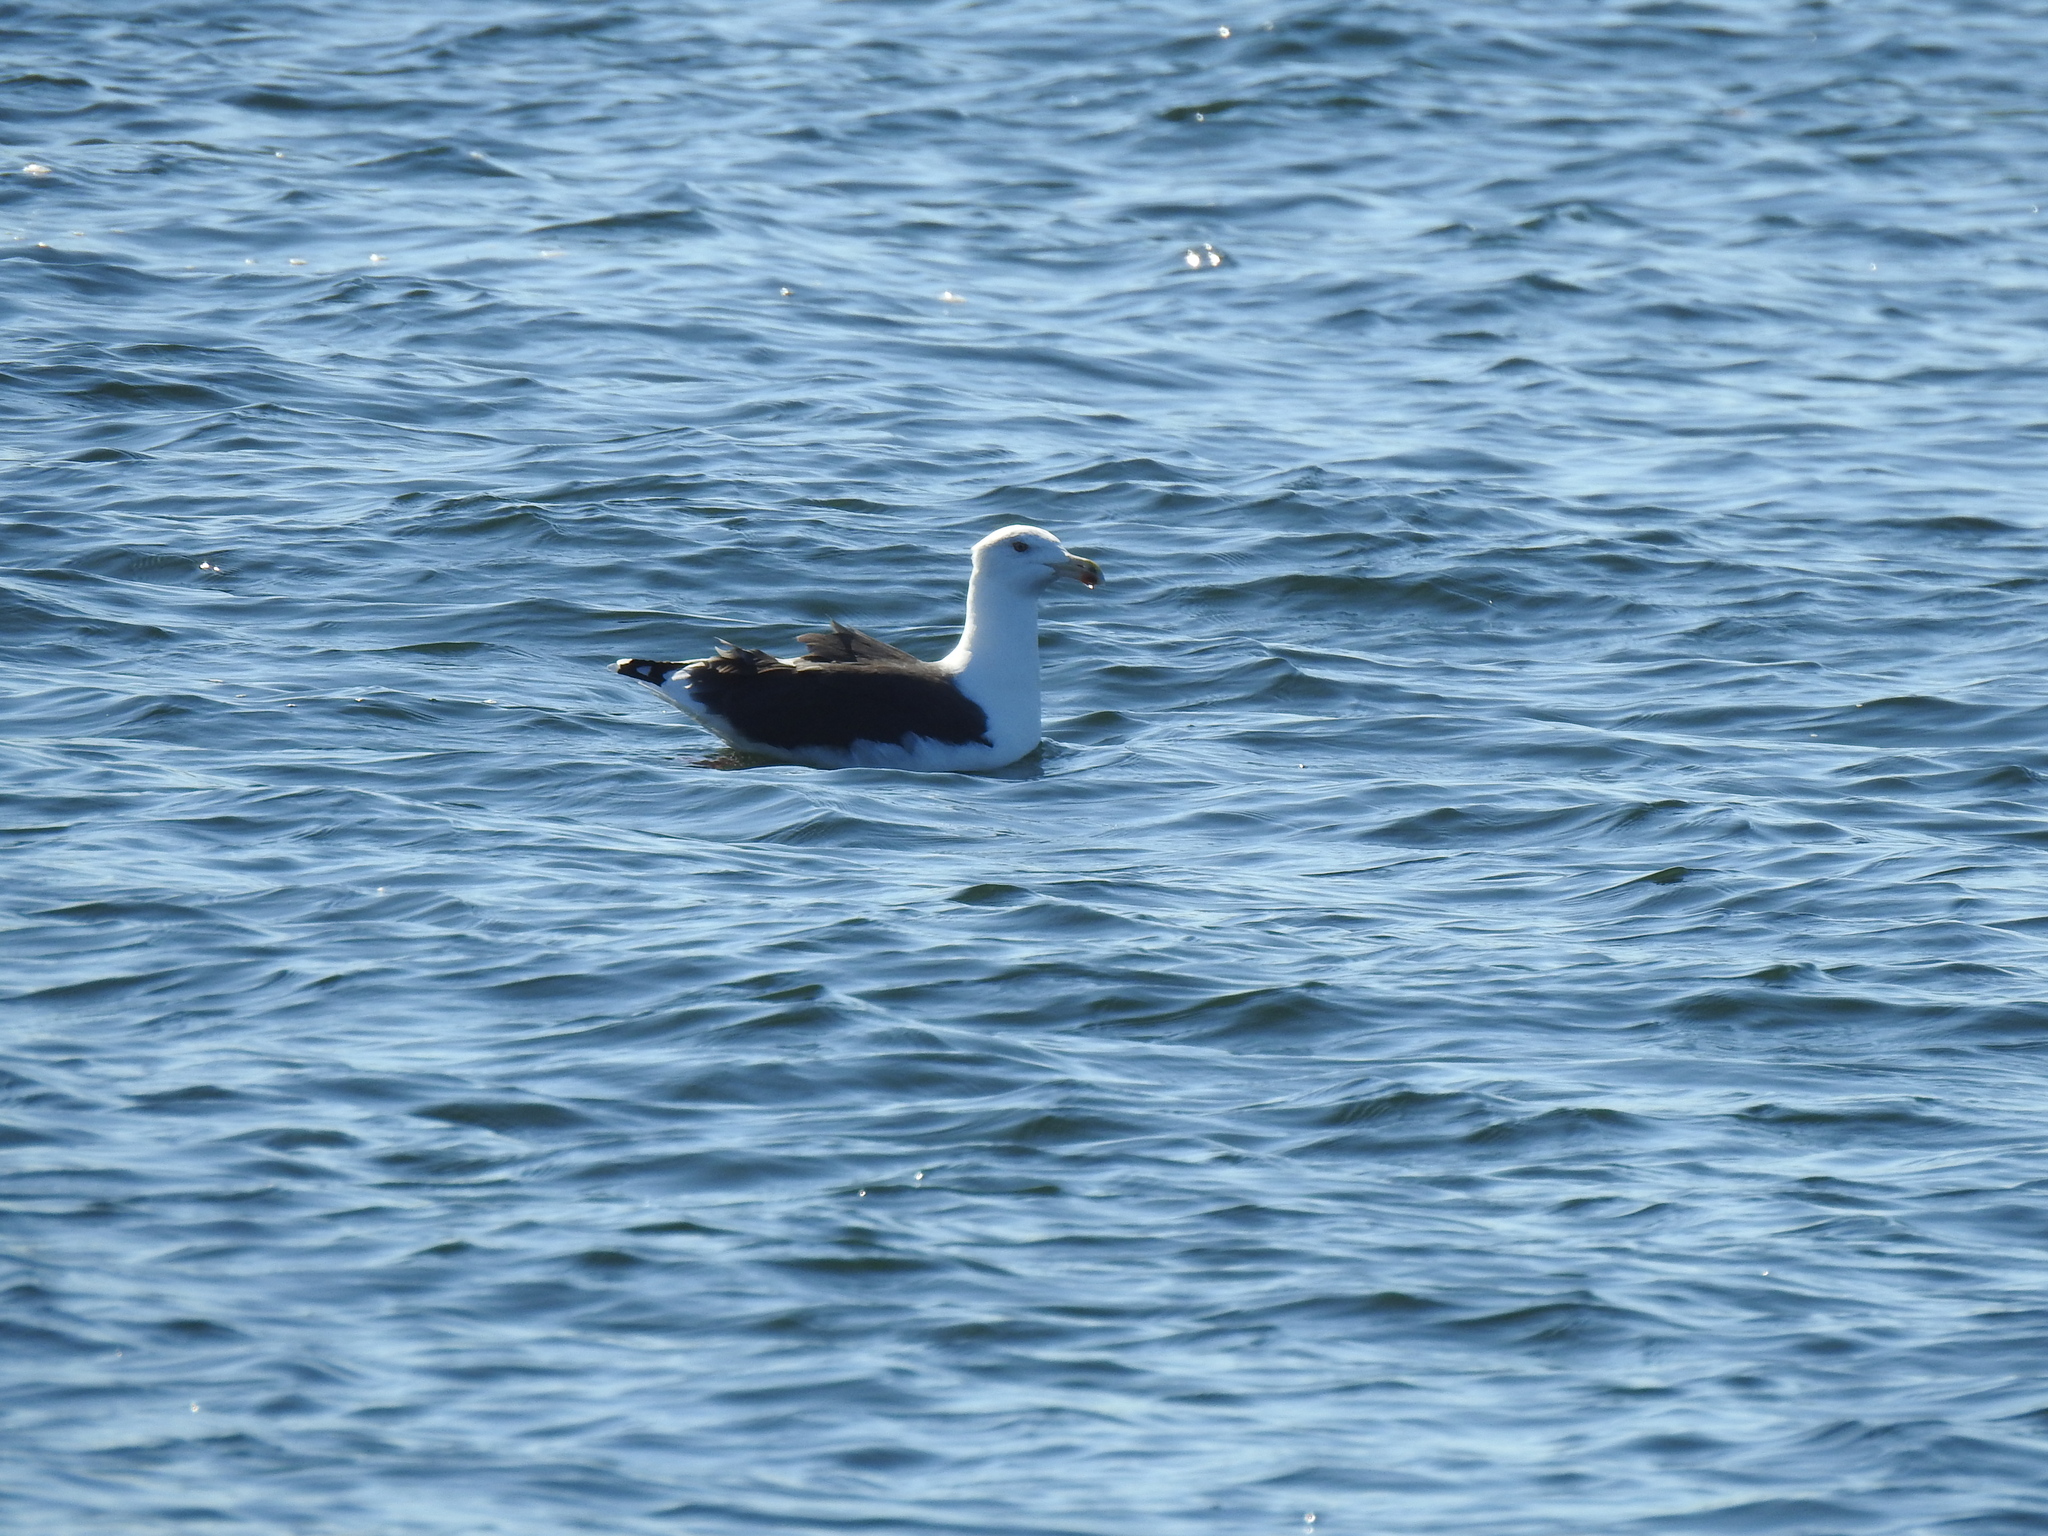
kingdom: Animalia
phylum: Chordata
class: Aves
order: Charadriiformes
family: Laridae
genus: Larus
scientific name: Larus marinus
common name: Great black-backed gull
